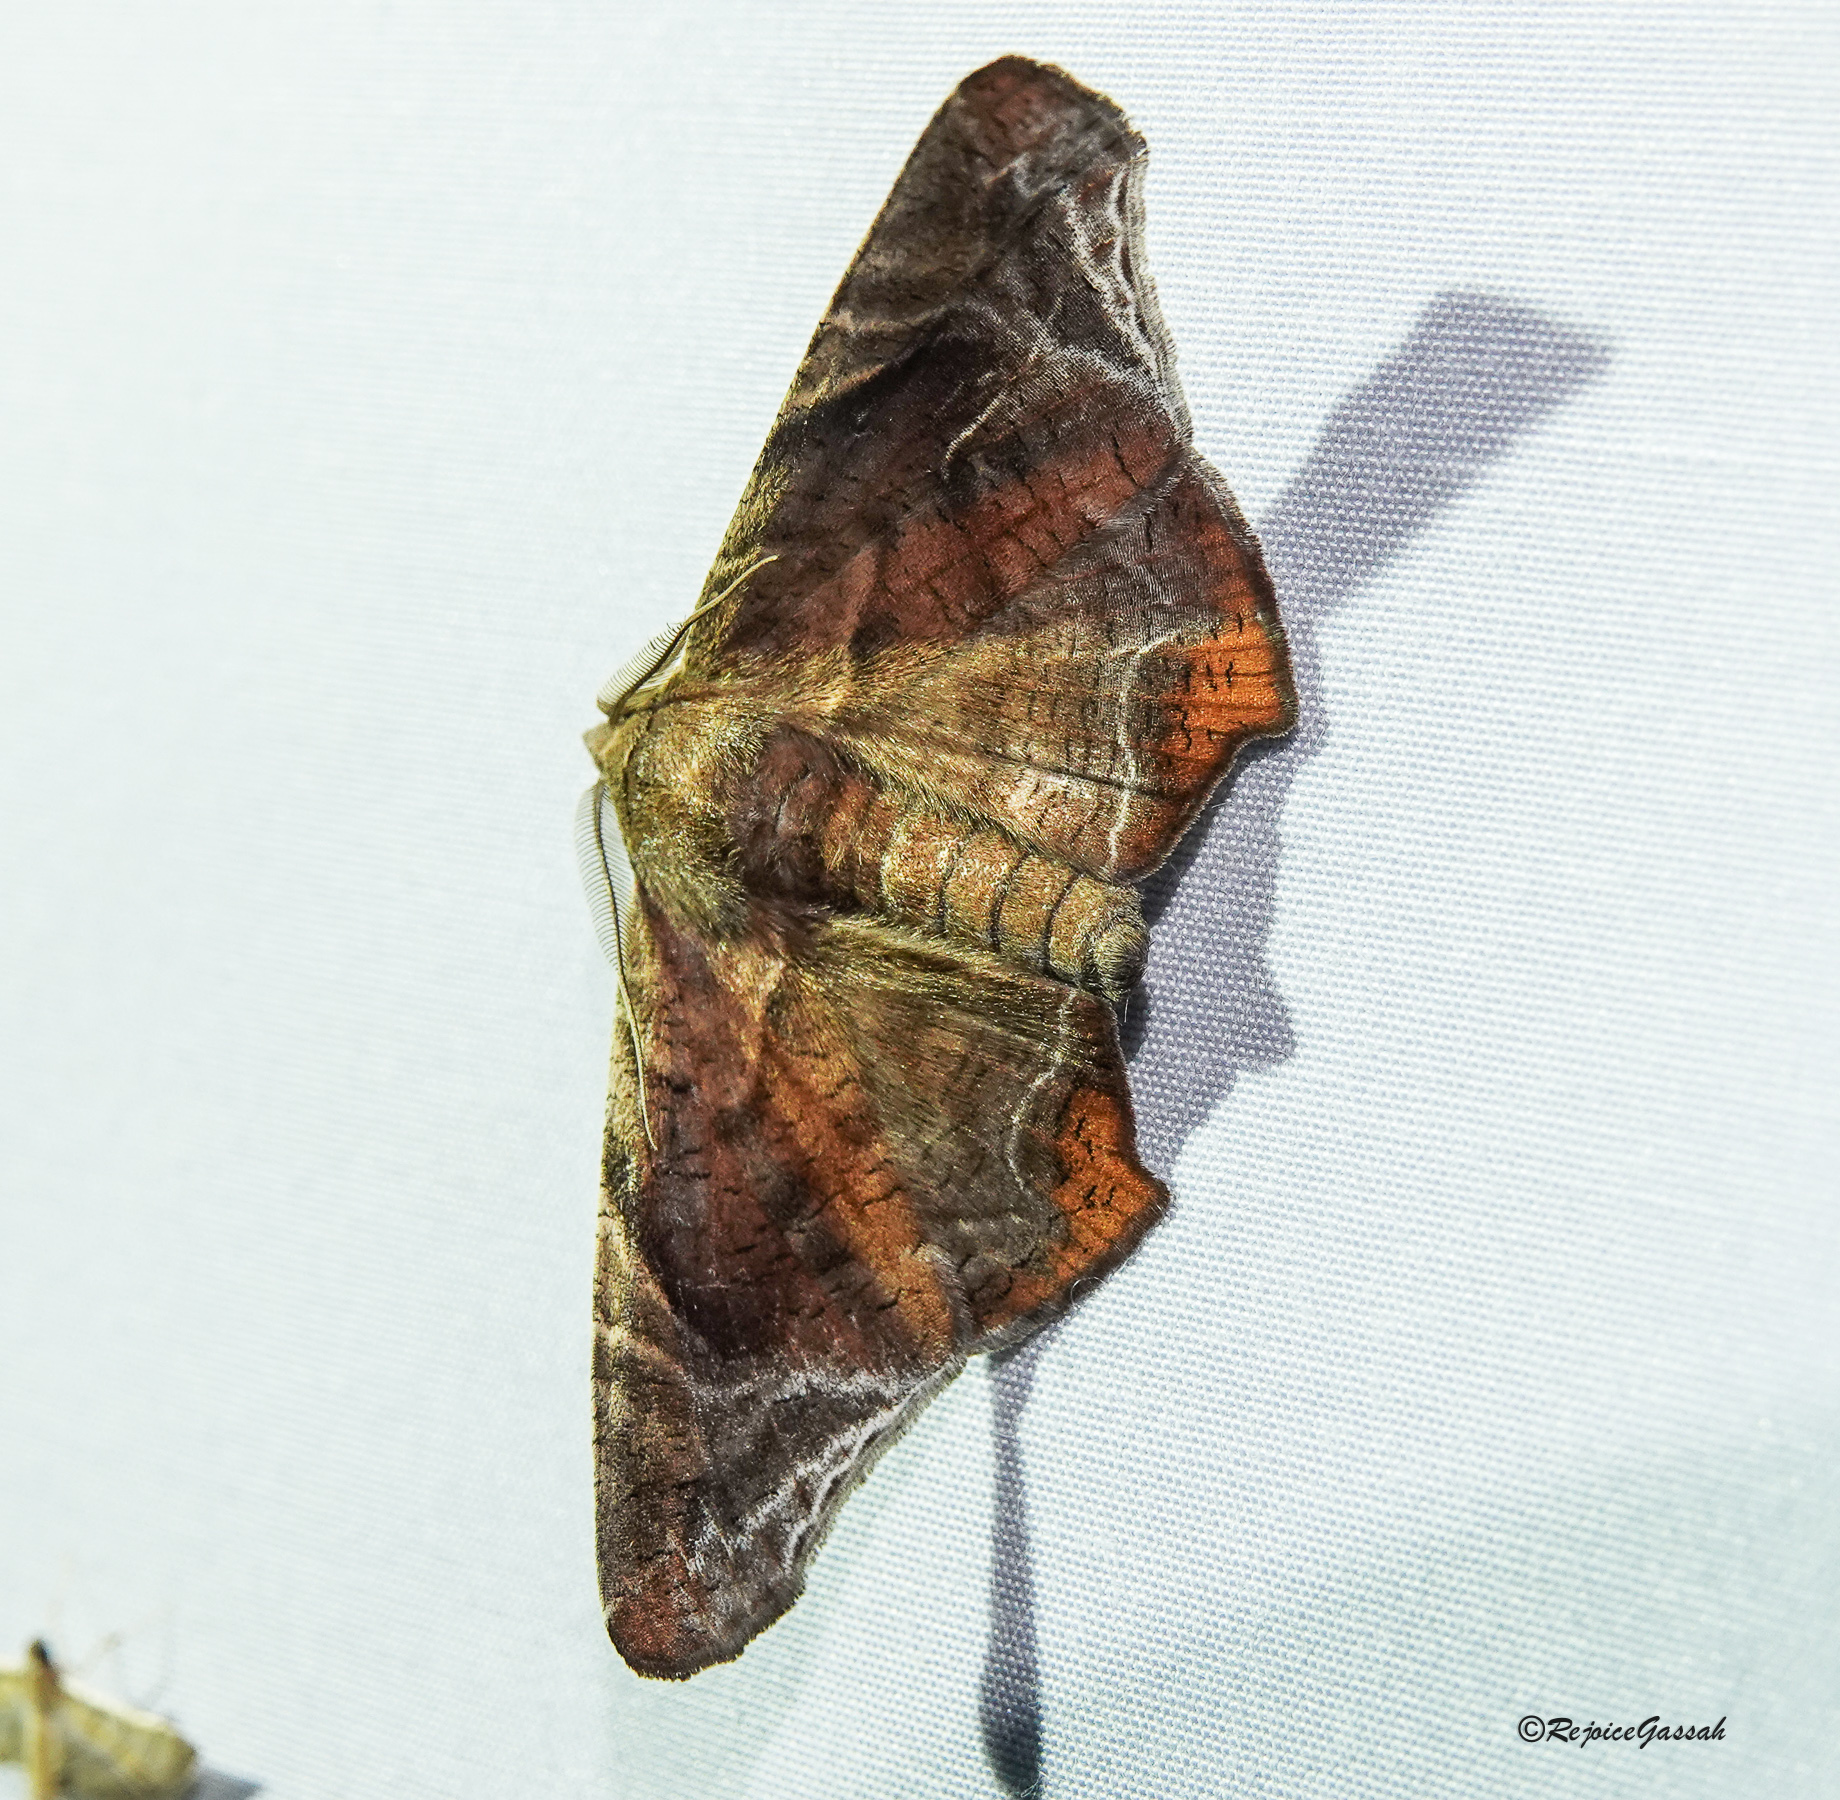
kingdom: Animalia
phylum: Arthropoda
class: Insecta
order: Lepidoptera
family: Erebidae
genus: Episparis
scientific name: Episparis tortuosalis
